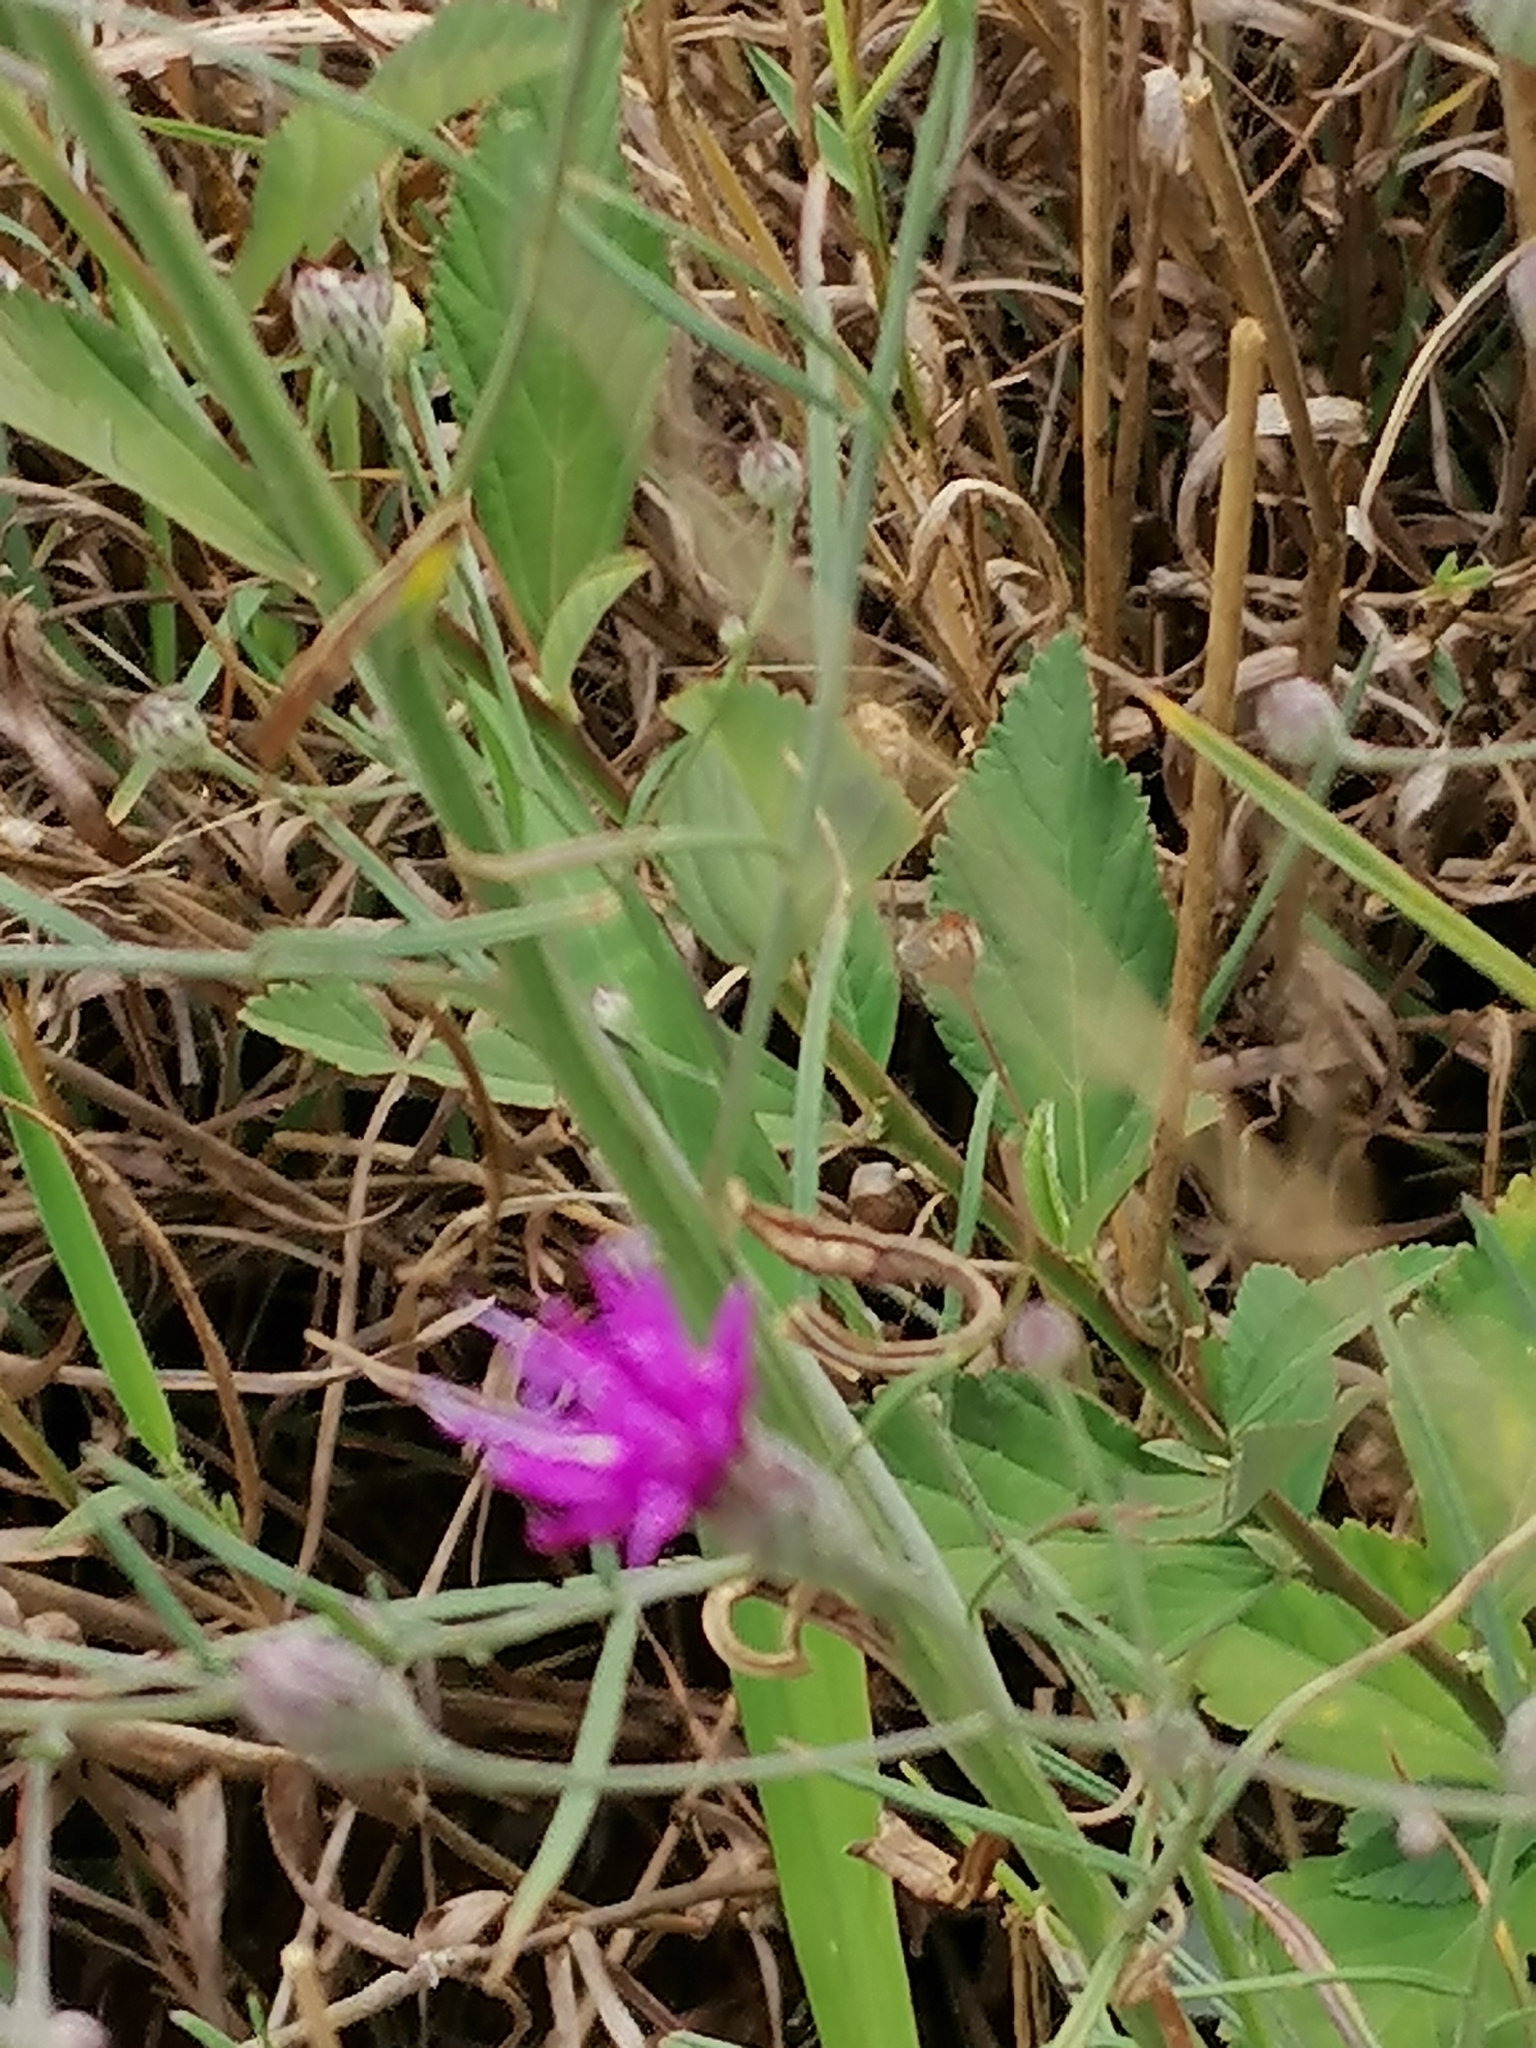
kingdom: Plantae
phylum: Tracheophyta
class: Magnoliopsida
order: Asterales
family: Asteraceae
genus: Crystallopollen
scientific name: Crystallopollen angustifolium
